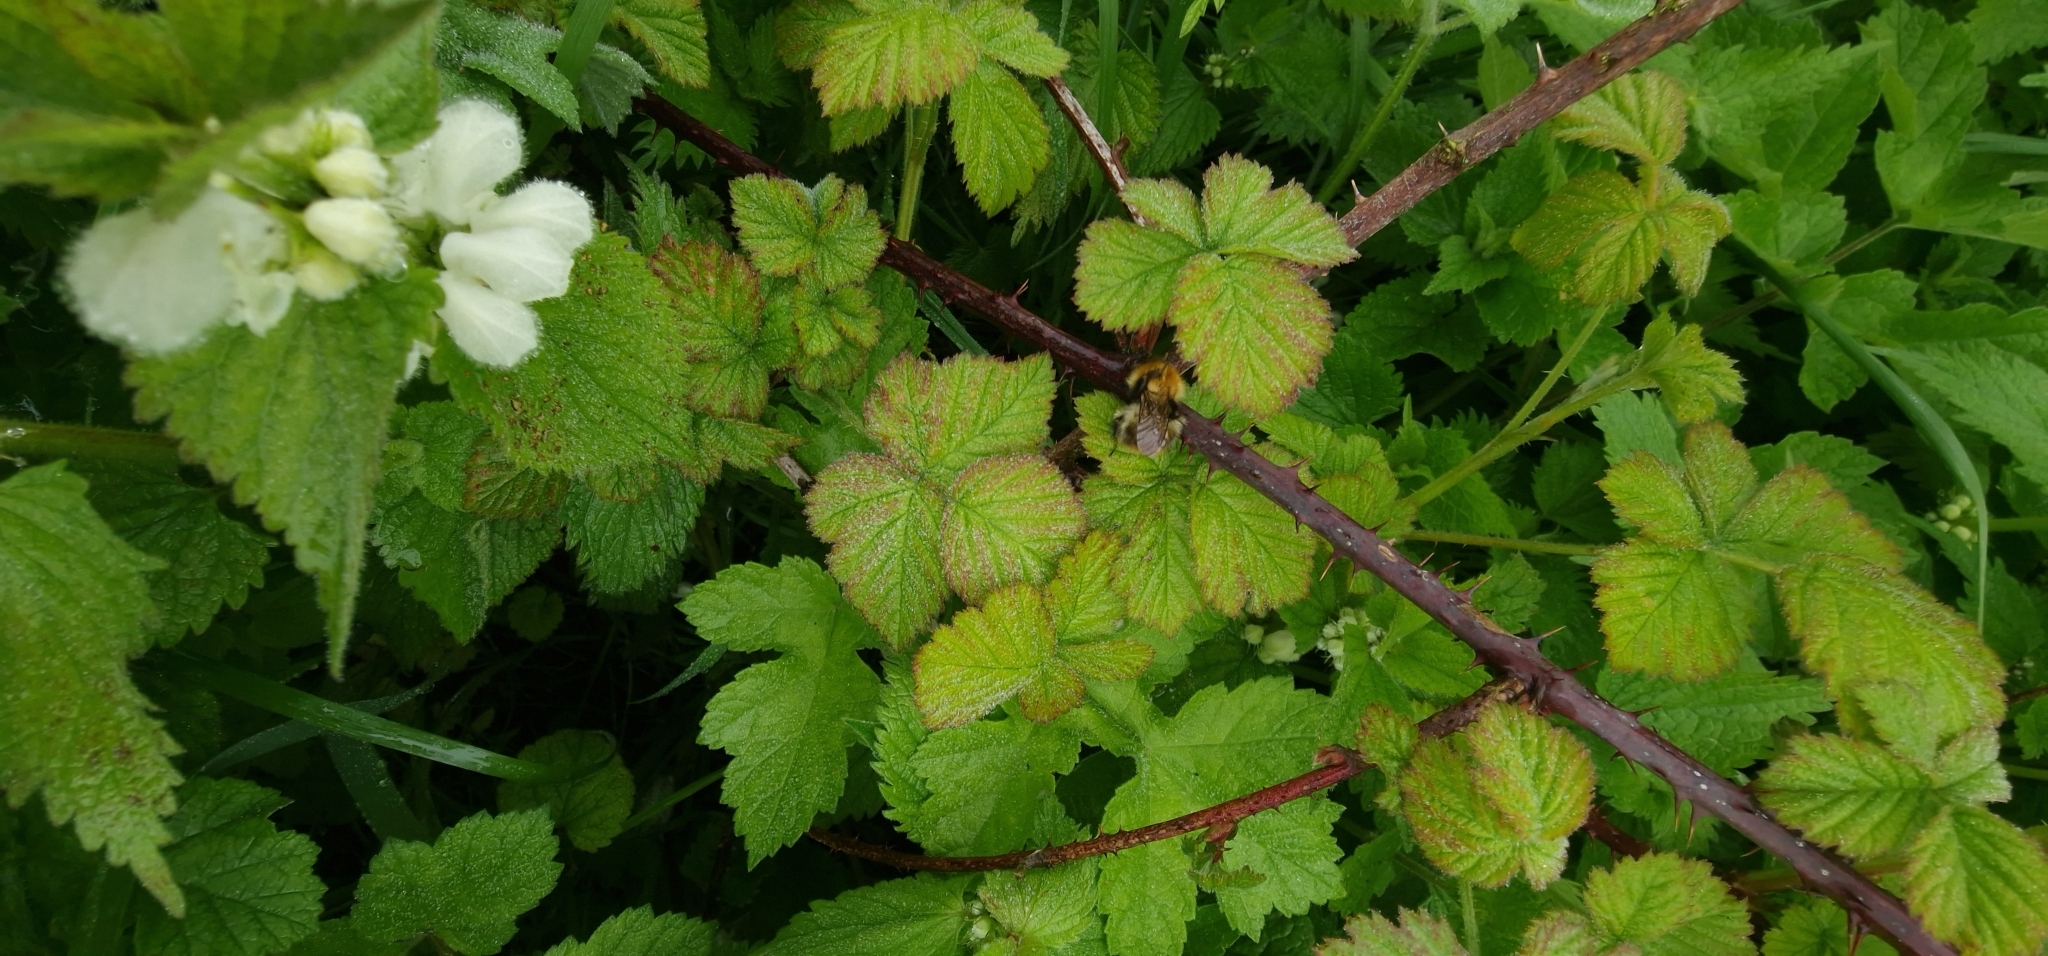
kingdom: Animalia
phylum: Arthropoda
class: Insecta
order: Hymenoptera
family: Apidae
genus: Bombus
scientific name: Bombus pascuorum
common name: Common carder bee
